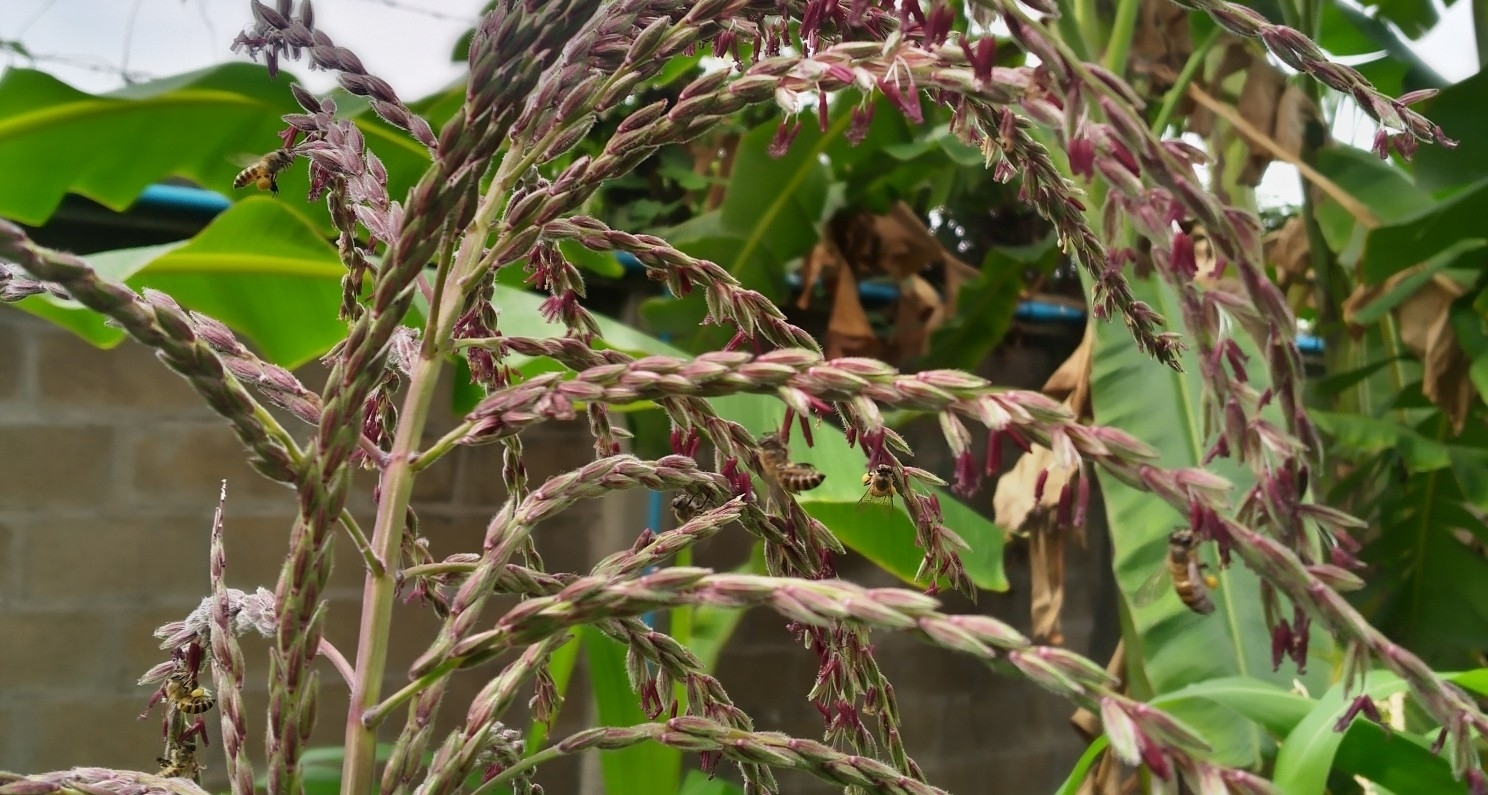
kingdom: Animalia
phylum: Arthropoda
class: Insecta
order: Hymenoptera
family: Apidae
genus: Apis
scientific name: Apis cerana
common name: Honey bee
